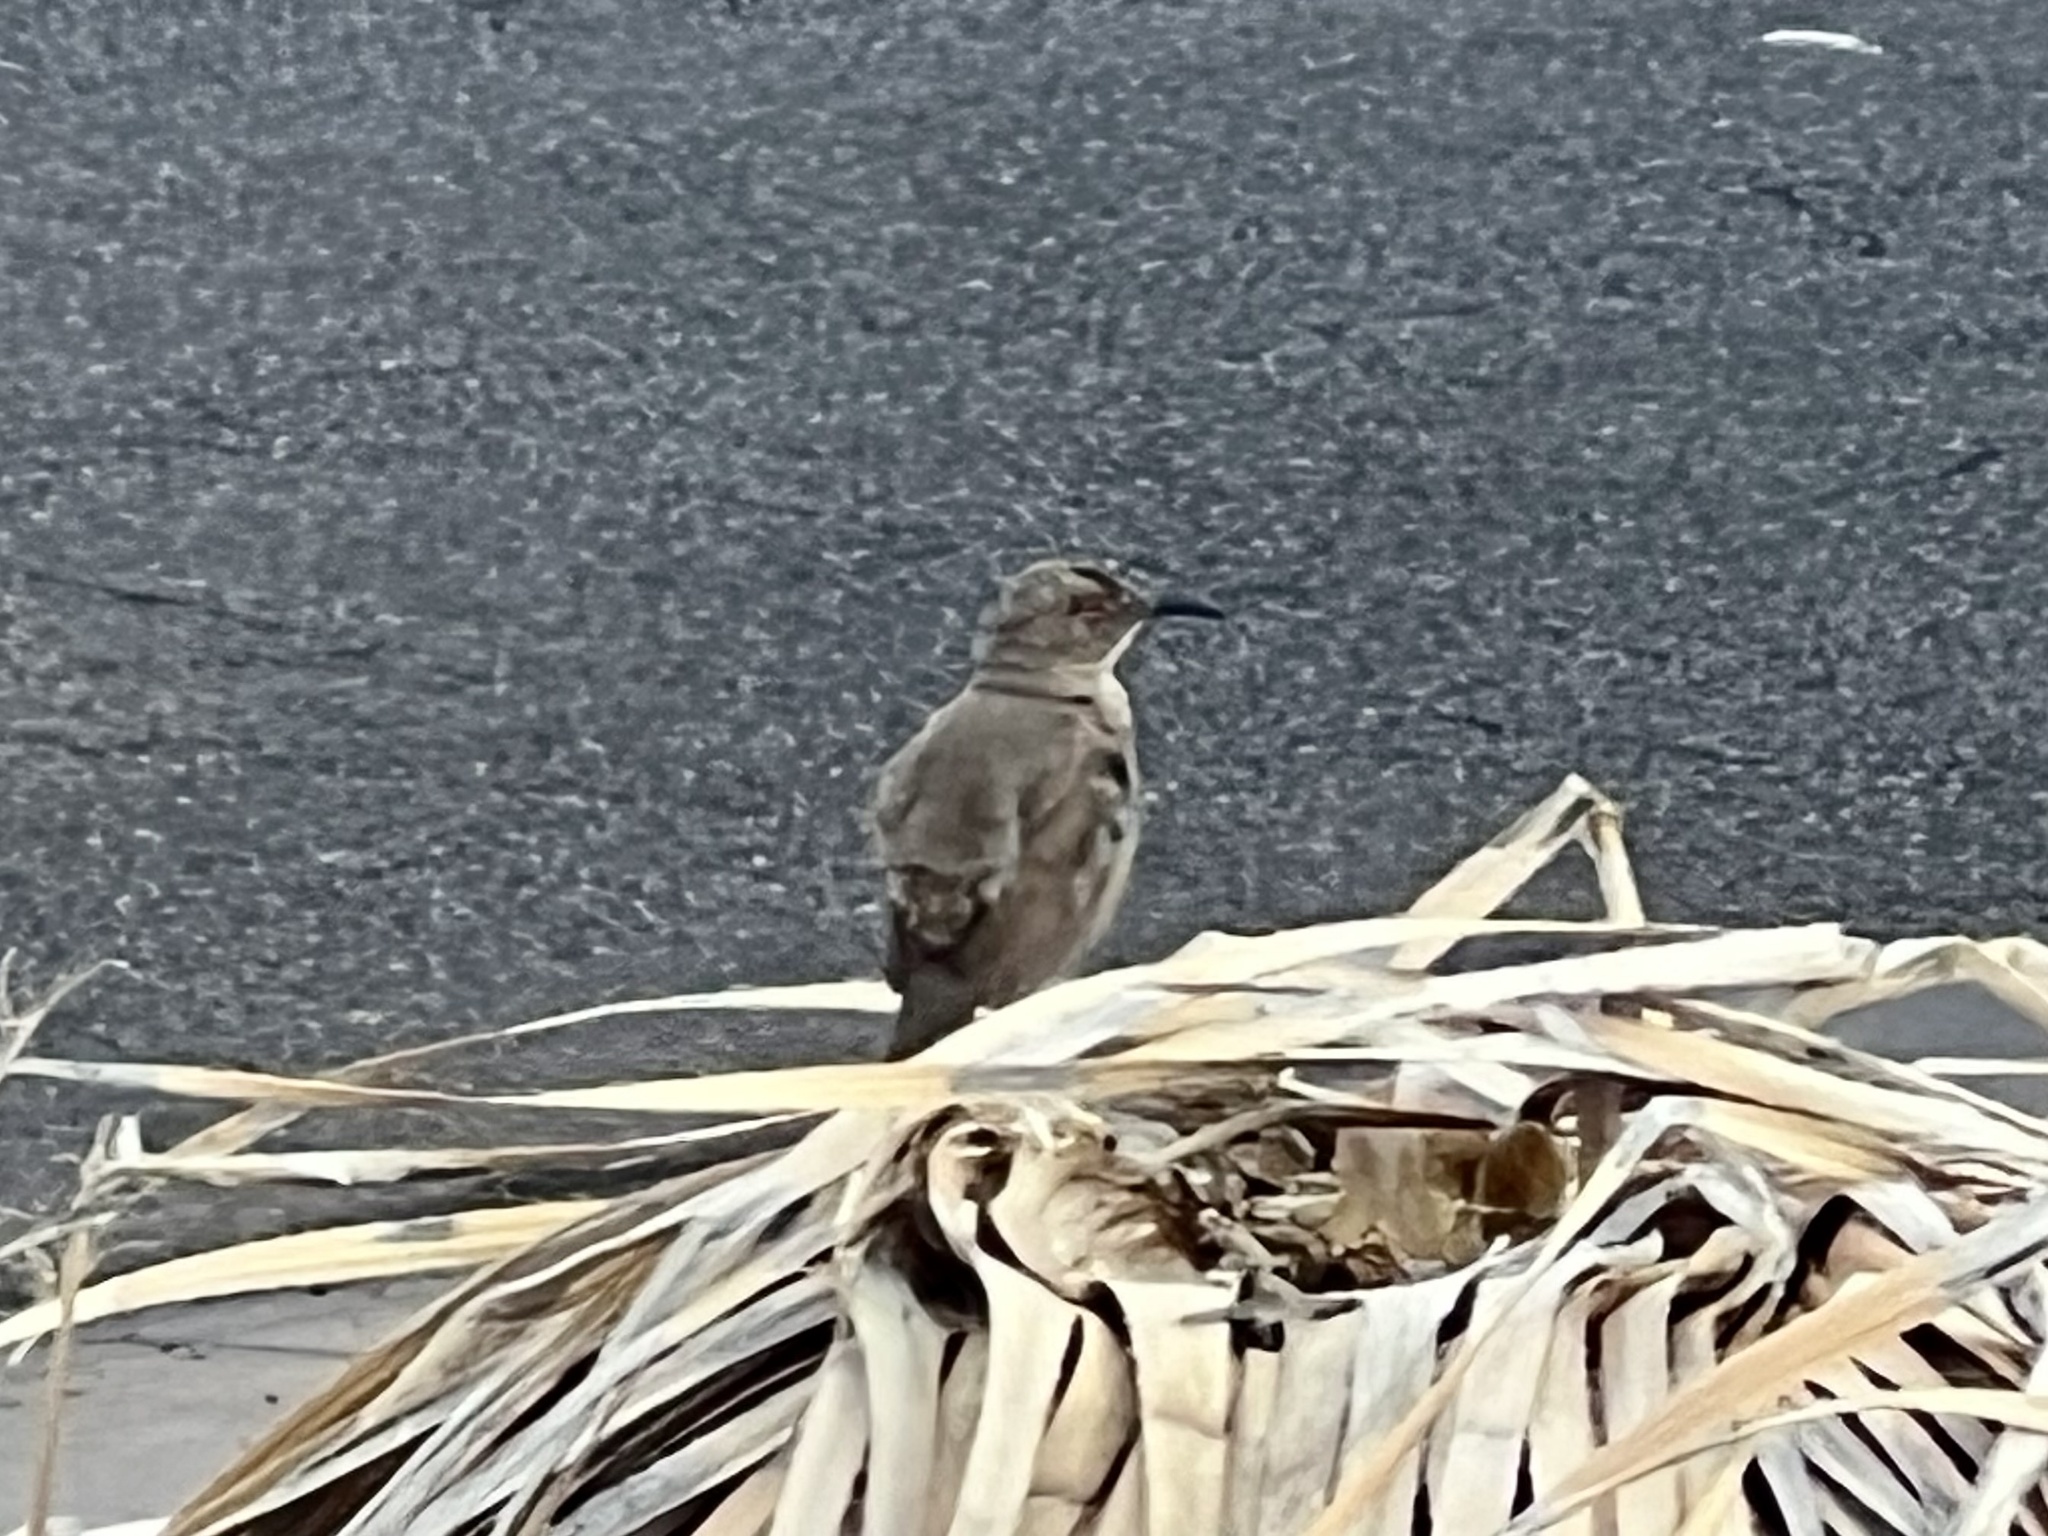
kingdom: Animalia
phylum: Chordata
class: Aves
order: Passeriformes
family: Mimidae
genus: Toxostoma
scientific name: Toxostoma curvirostre
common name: Curve-billed thrasher
